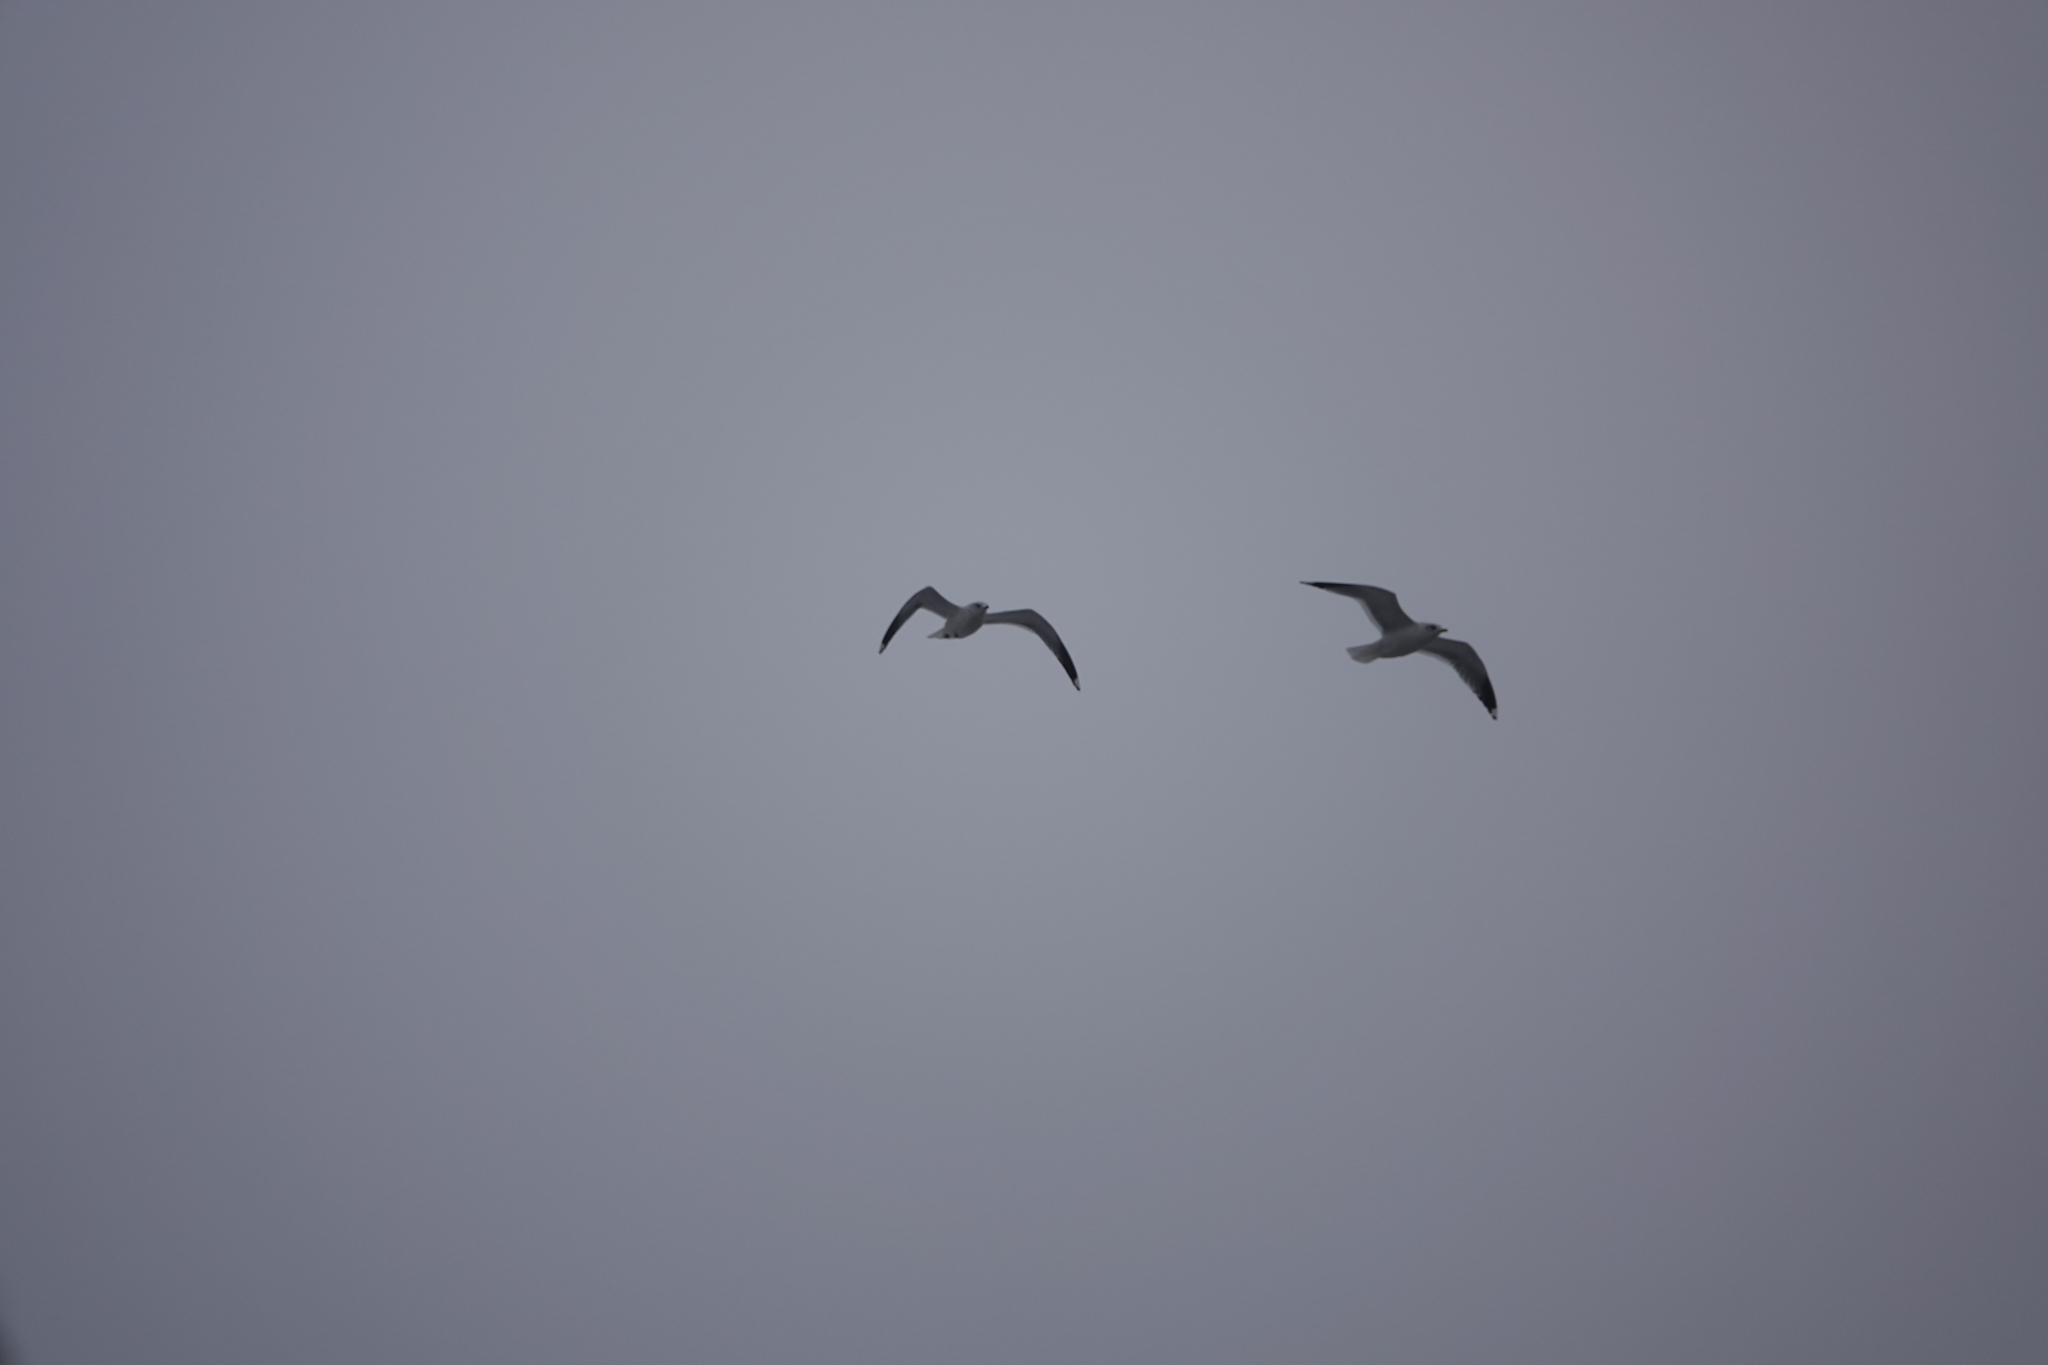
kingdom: Animalia
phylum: Chordata
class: Aves
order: Charadriiformes
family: Laridae
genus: Larus
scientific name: Larus canus
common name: Mew gull
